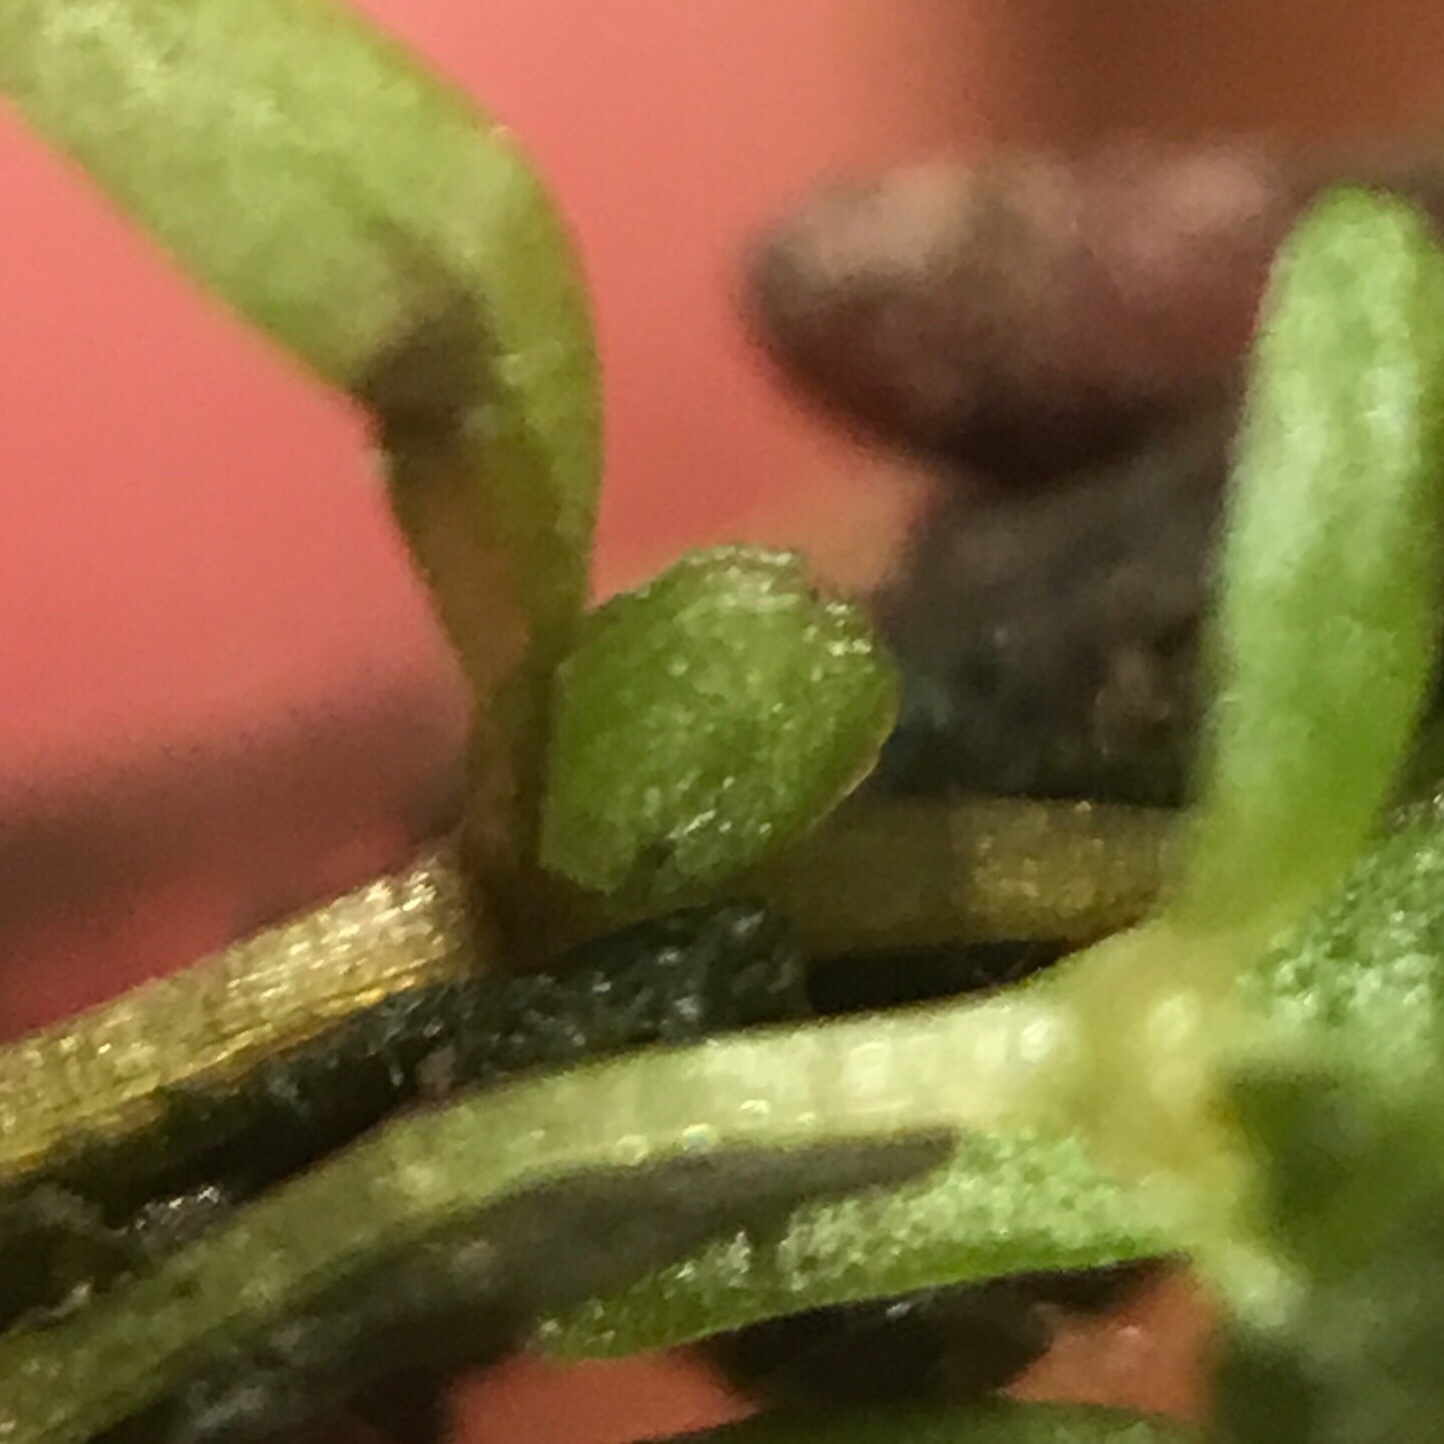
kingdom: Plantae
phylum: Tracheophyta
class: Magnoliopsida
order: Lamiales
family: Plantaginaceae
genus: Callitriche
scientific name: Callitriche palustris
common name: Spring water-starwort
